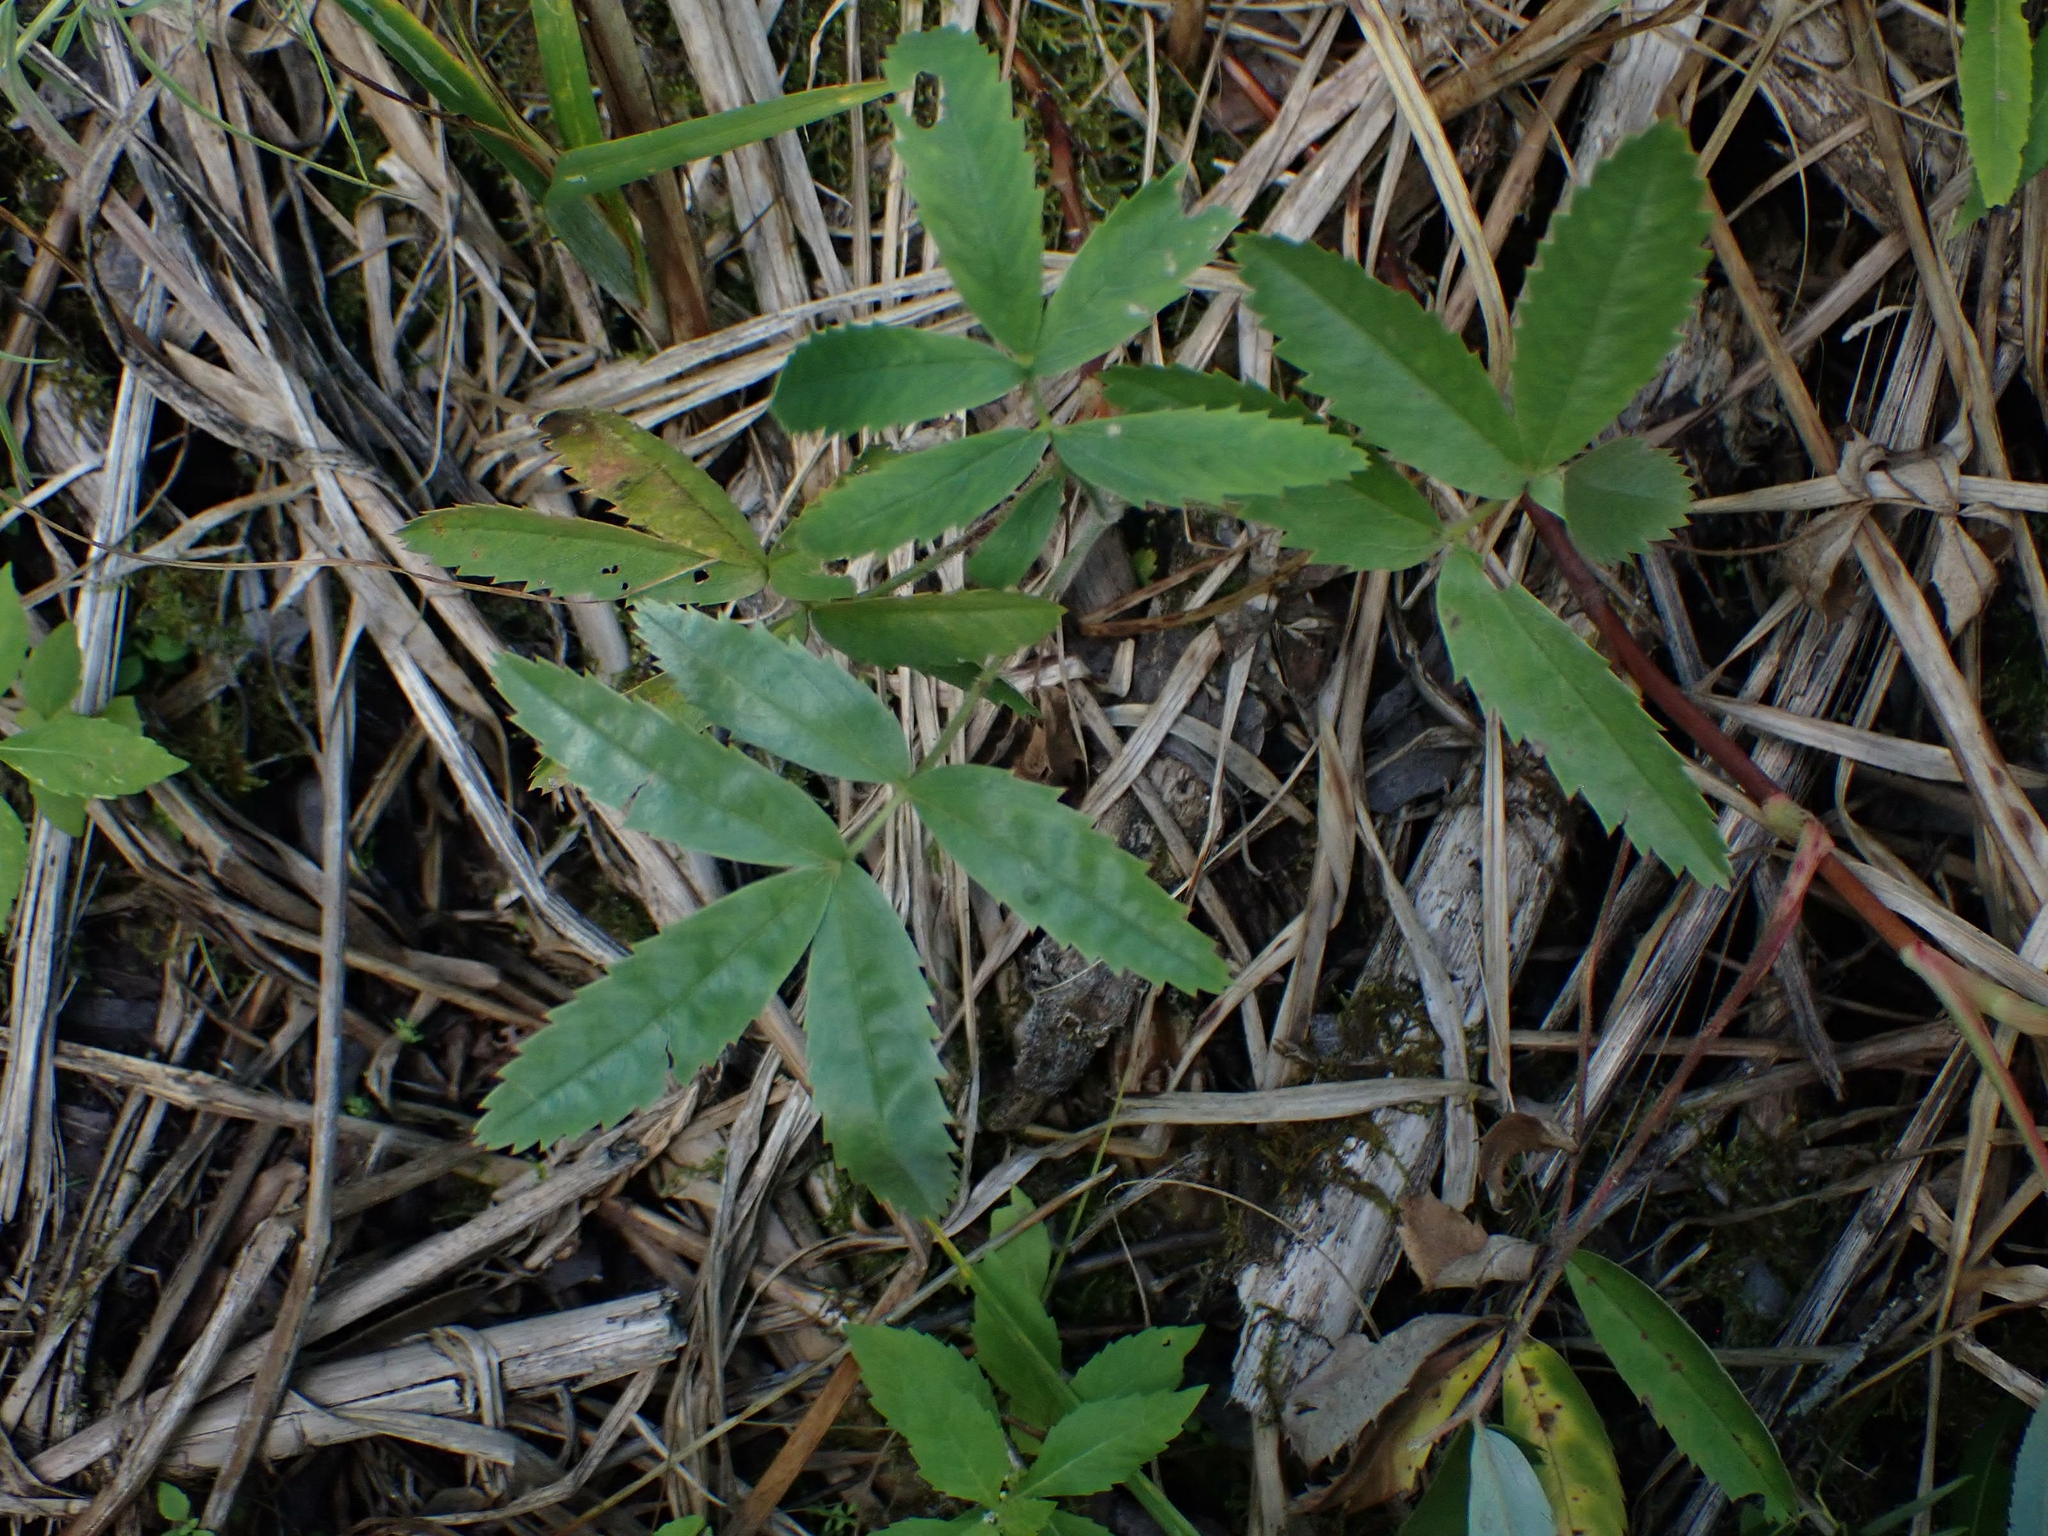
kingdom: Plantae
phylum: Tracheophyta
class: Magnoliopsida
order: Rosales
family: Rosaceae
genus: Comarum
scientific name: Comarum palustre
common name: Marsh cinquefoil
